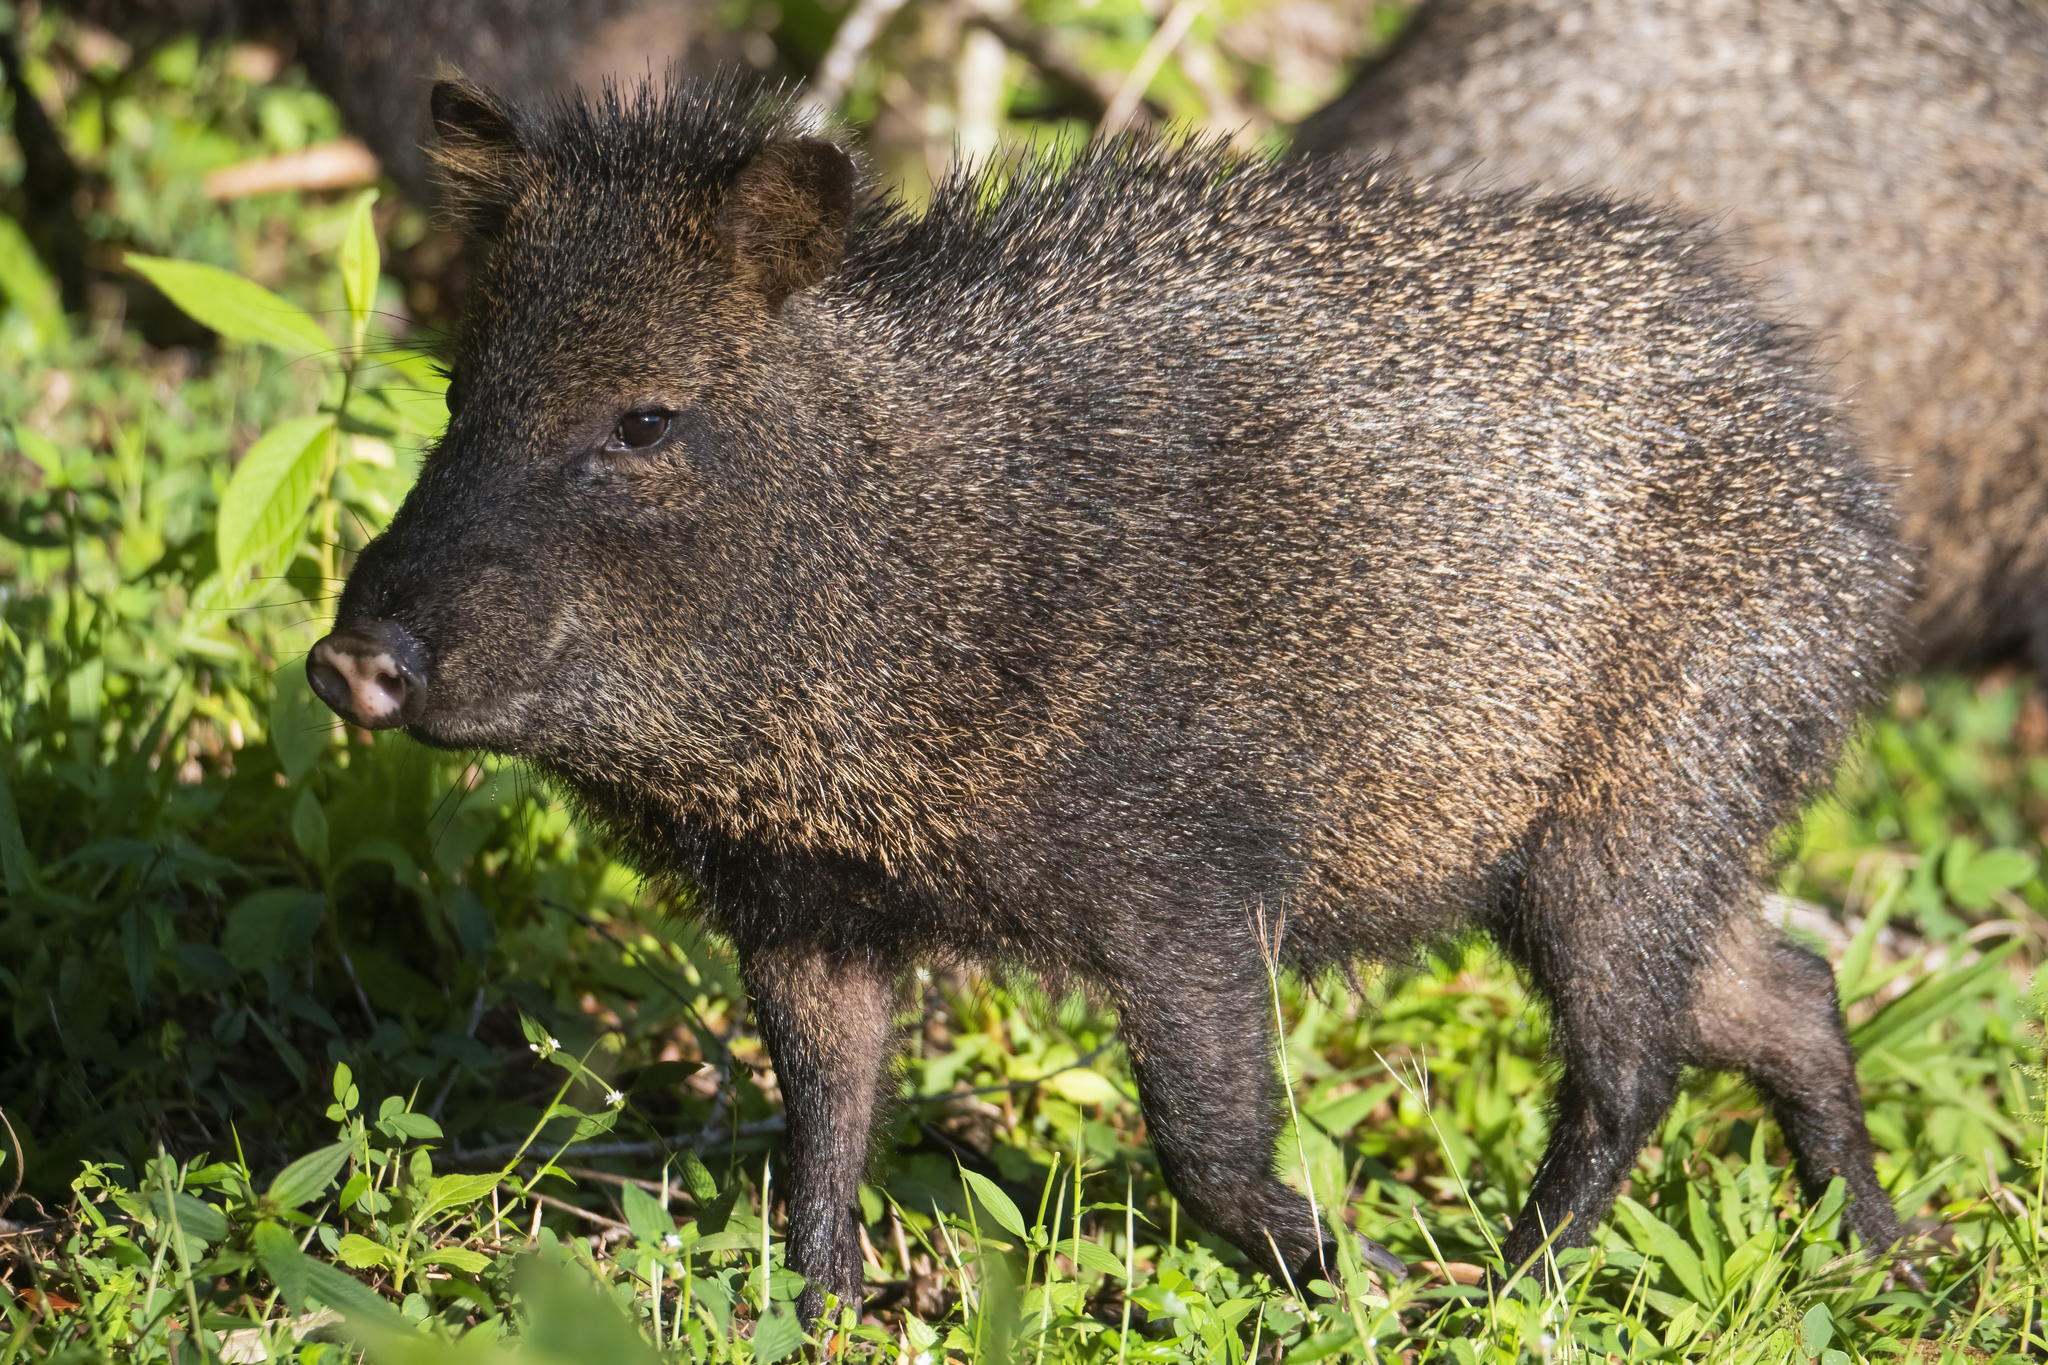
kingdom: Animalia
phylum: Chordata
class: Mammalia
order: Artiodactyla
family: Tayassuidae
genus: Pecari
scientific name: Pecari tajacu
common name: Collared peccary
